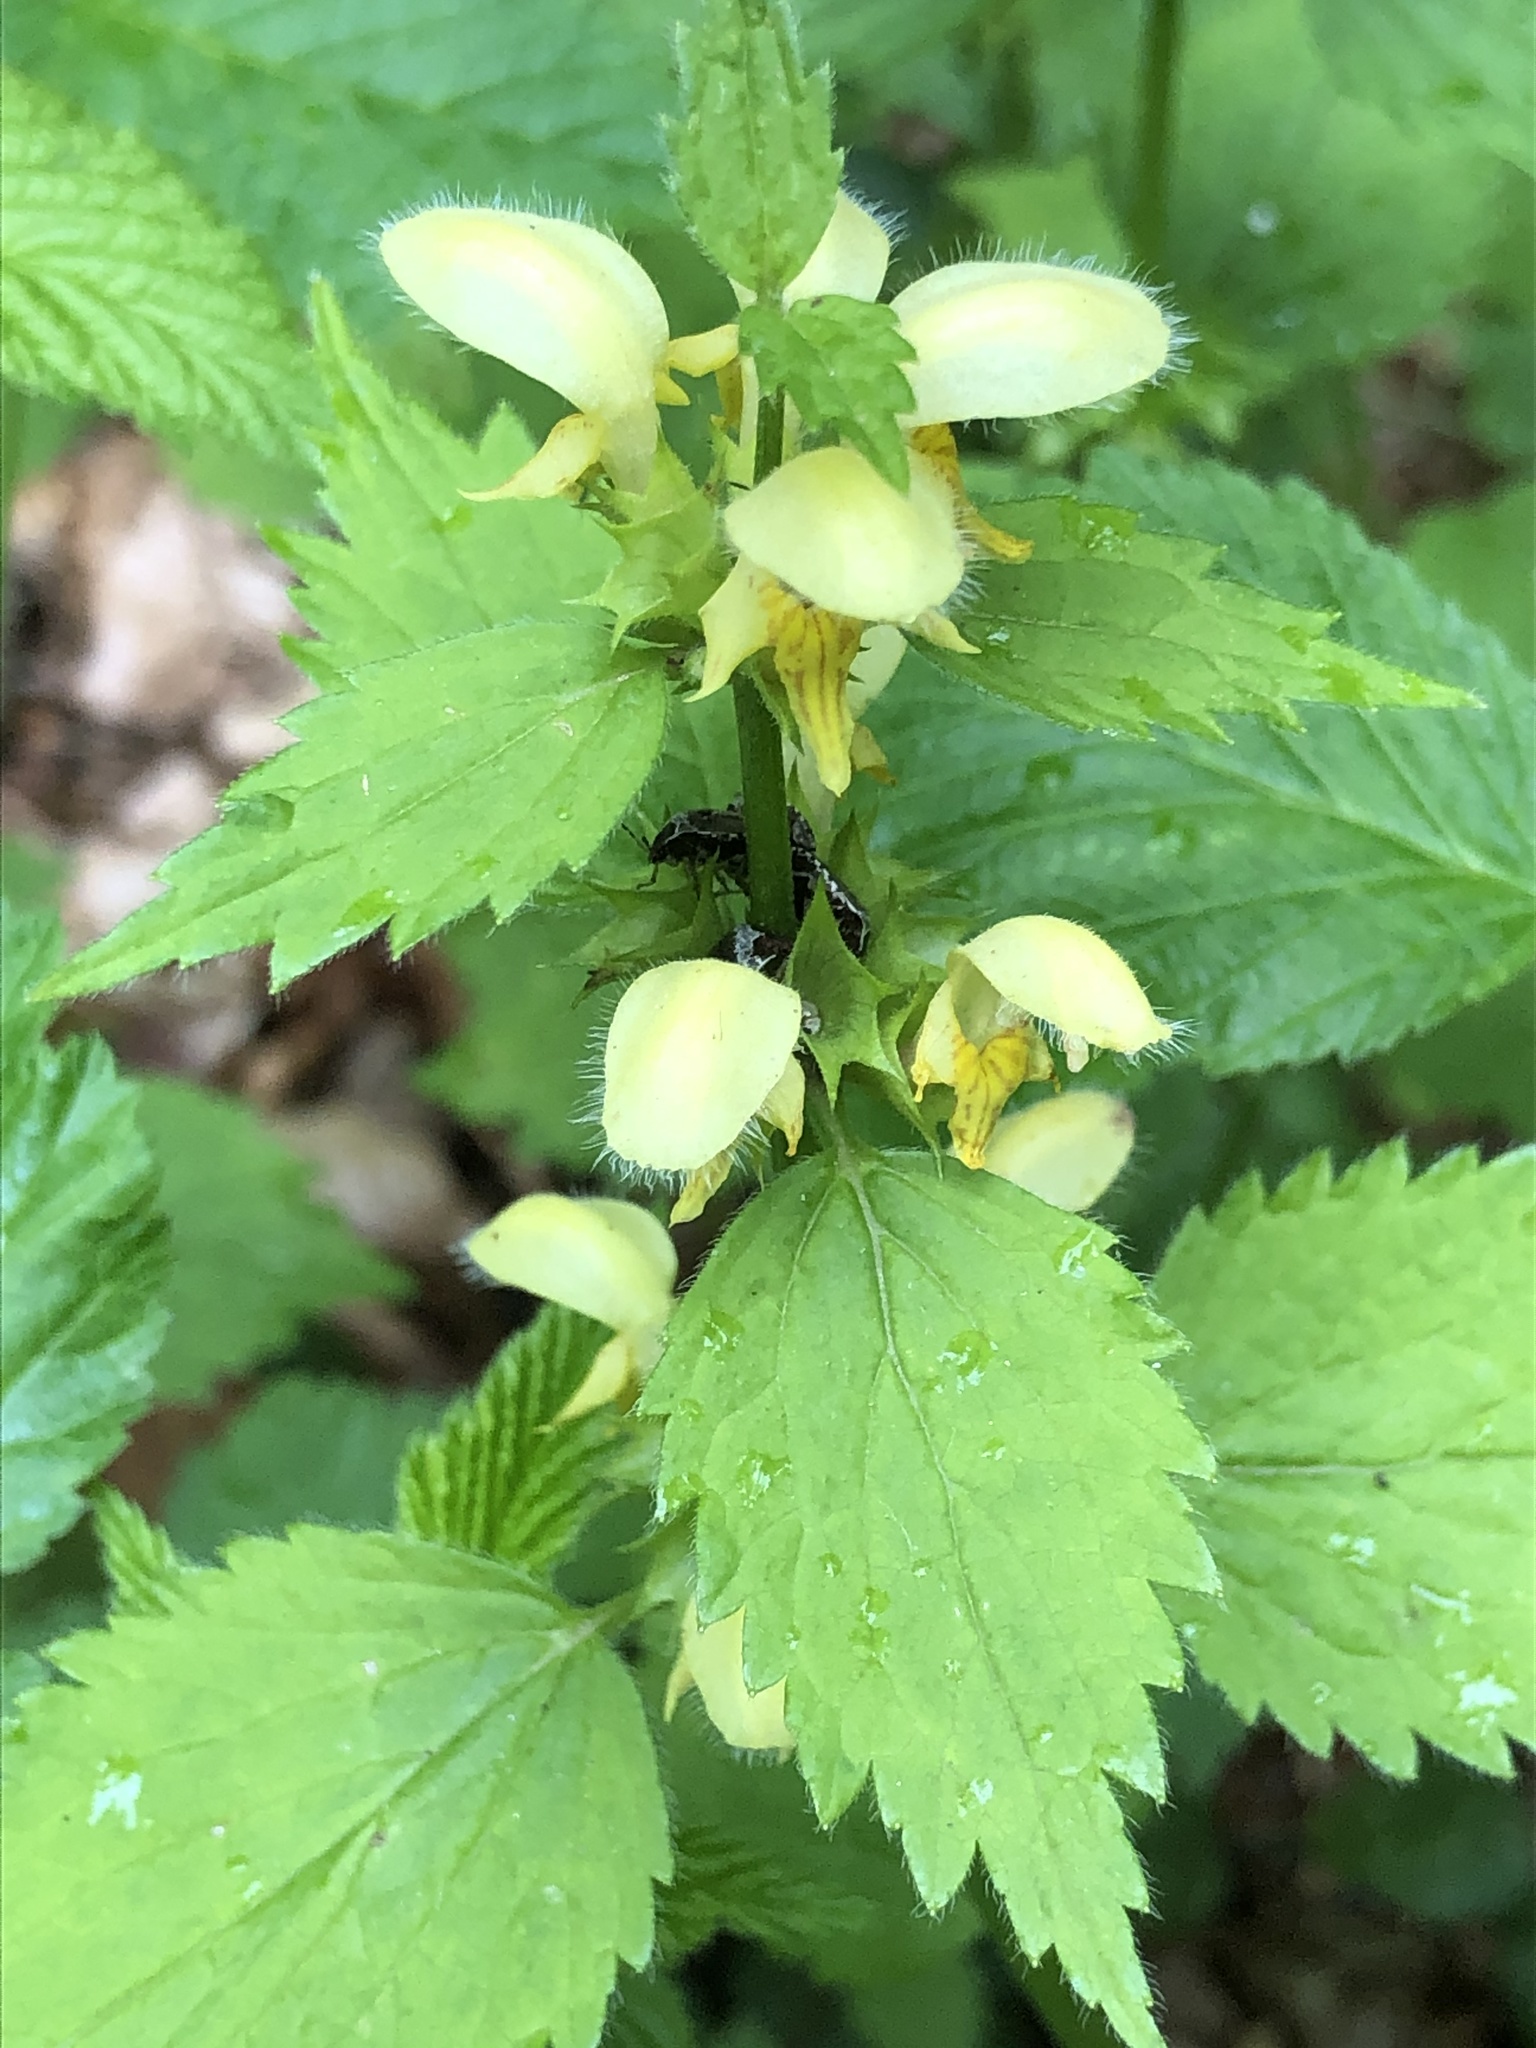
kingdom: Plantae
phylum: Tracheophyta
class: Magnoliopsida
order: Lamiales
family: Lamiaceae
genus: Lamium
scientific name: Lamium galeobdolon
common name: Yellow archangel
